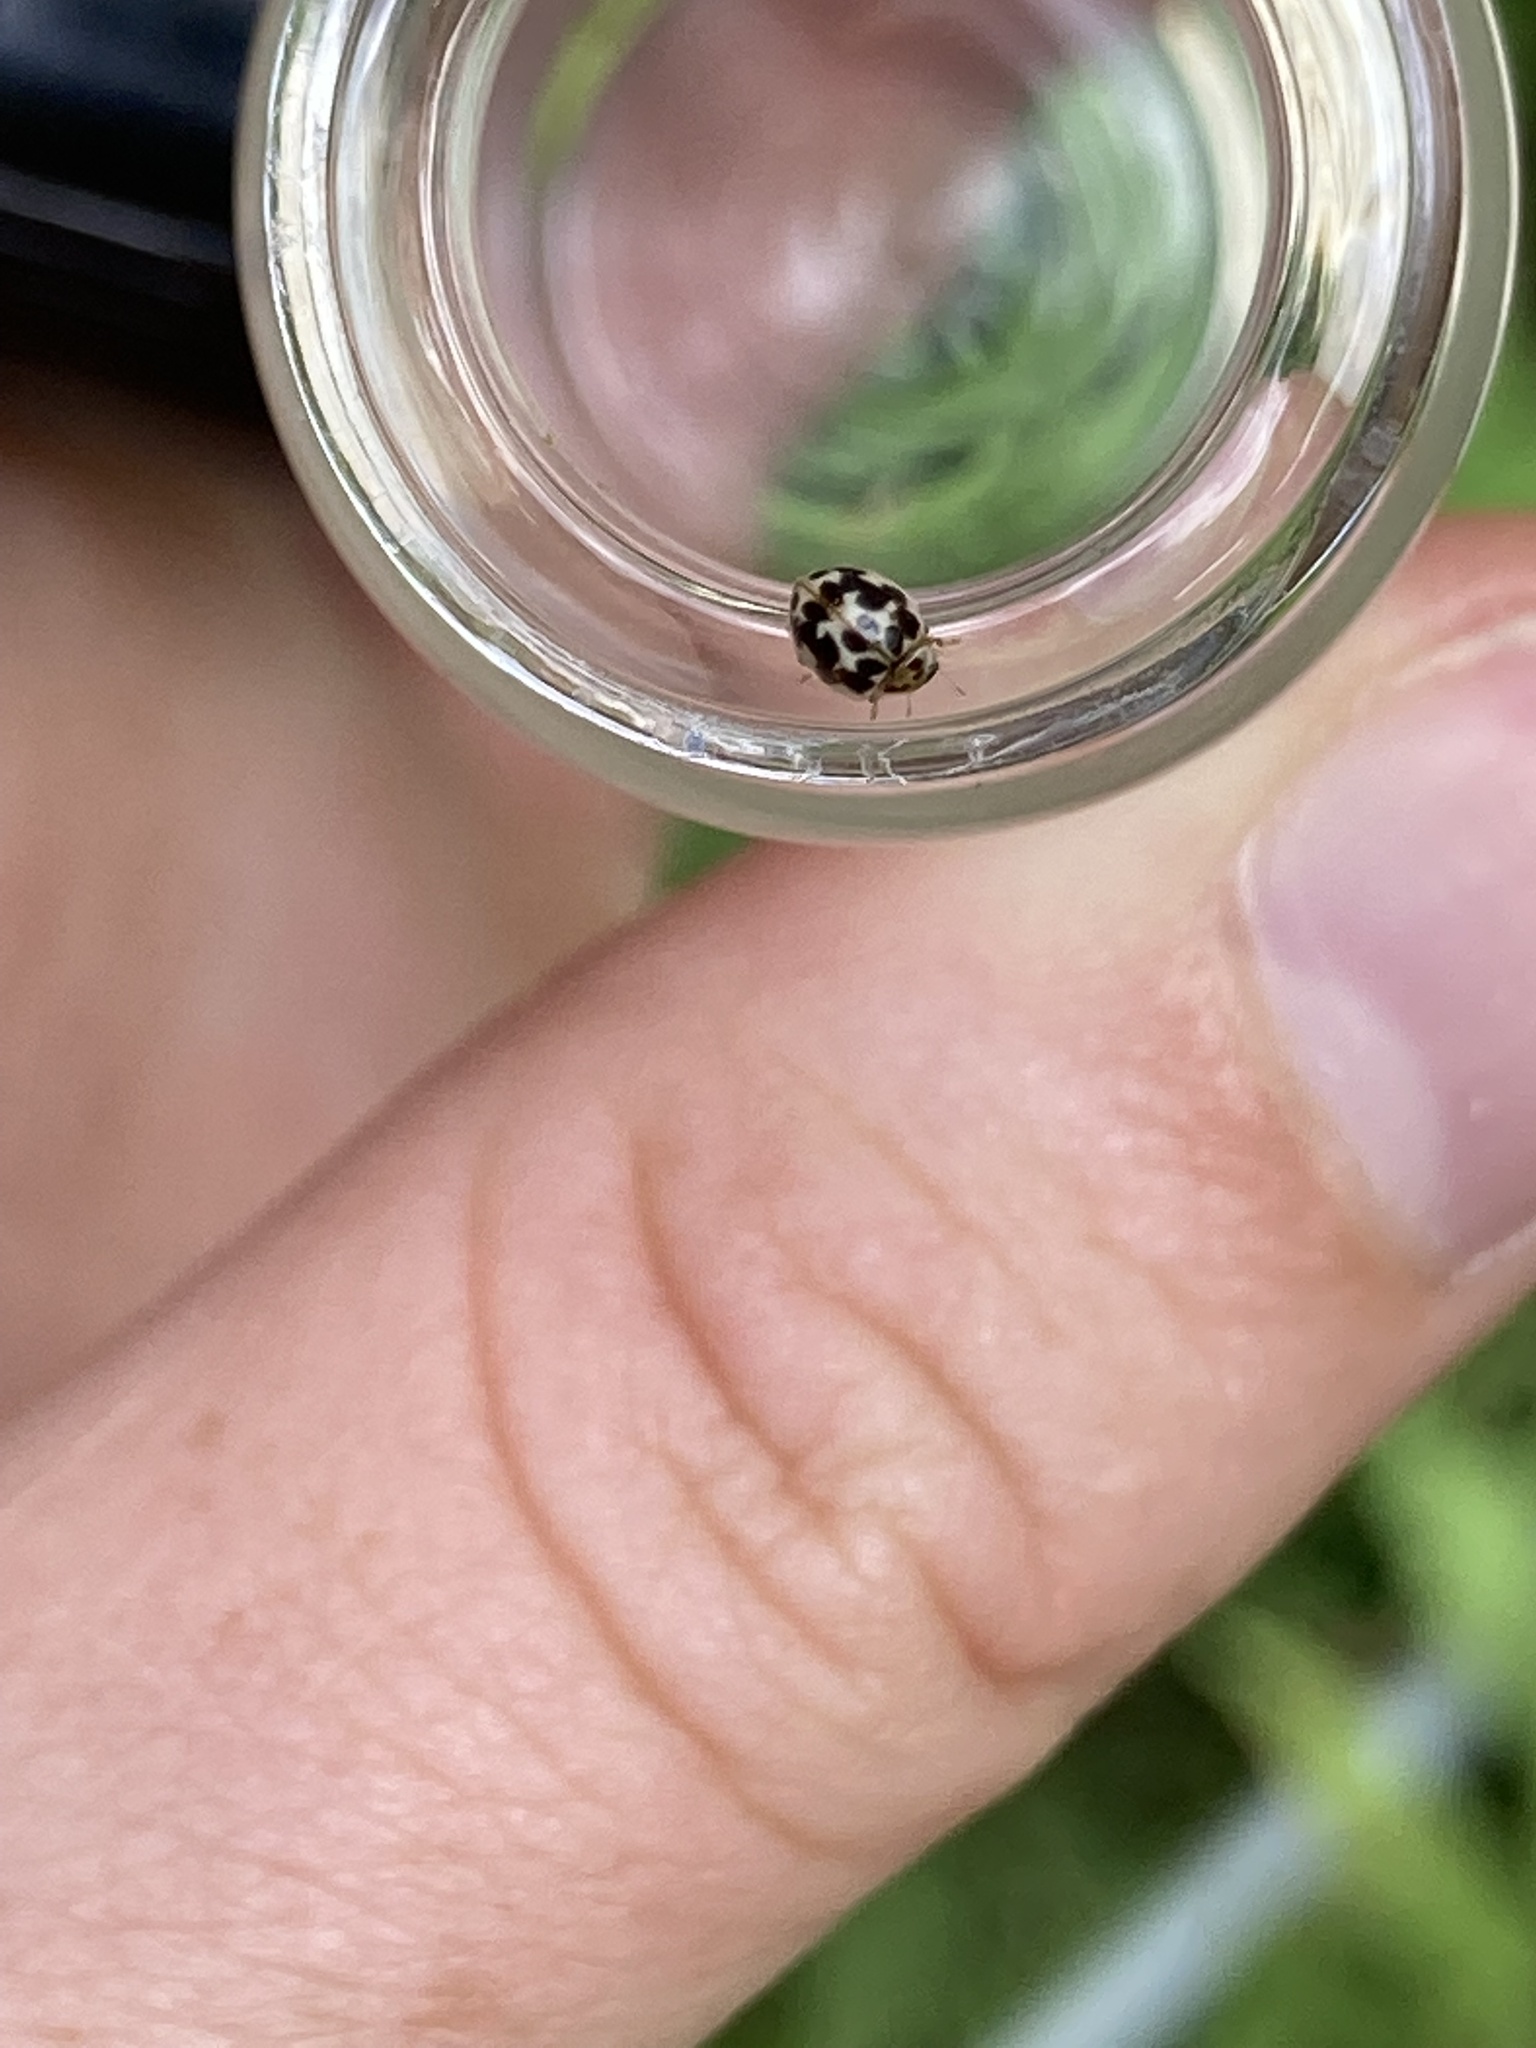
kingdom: Animalia
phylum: Arthropoda
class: Insecta
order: Coleoptera
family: Coccinellidae
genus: Psyllobora
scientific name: Psyllobora vigintimaculata
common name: Ladybird beetle
